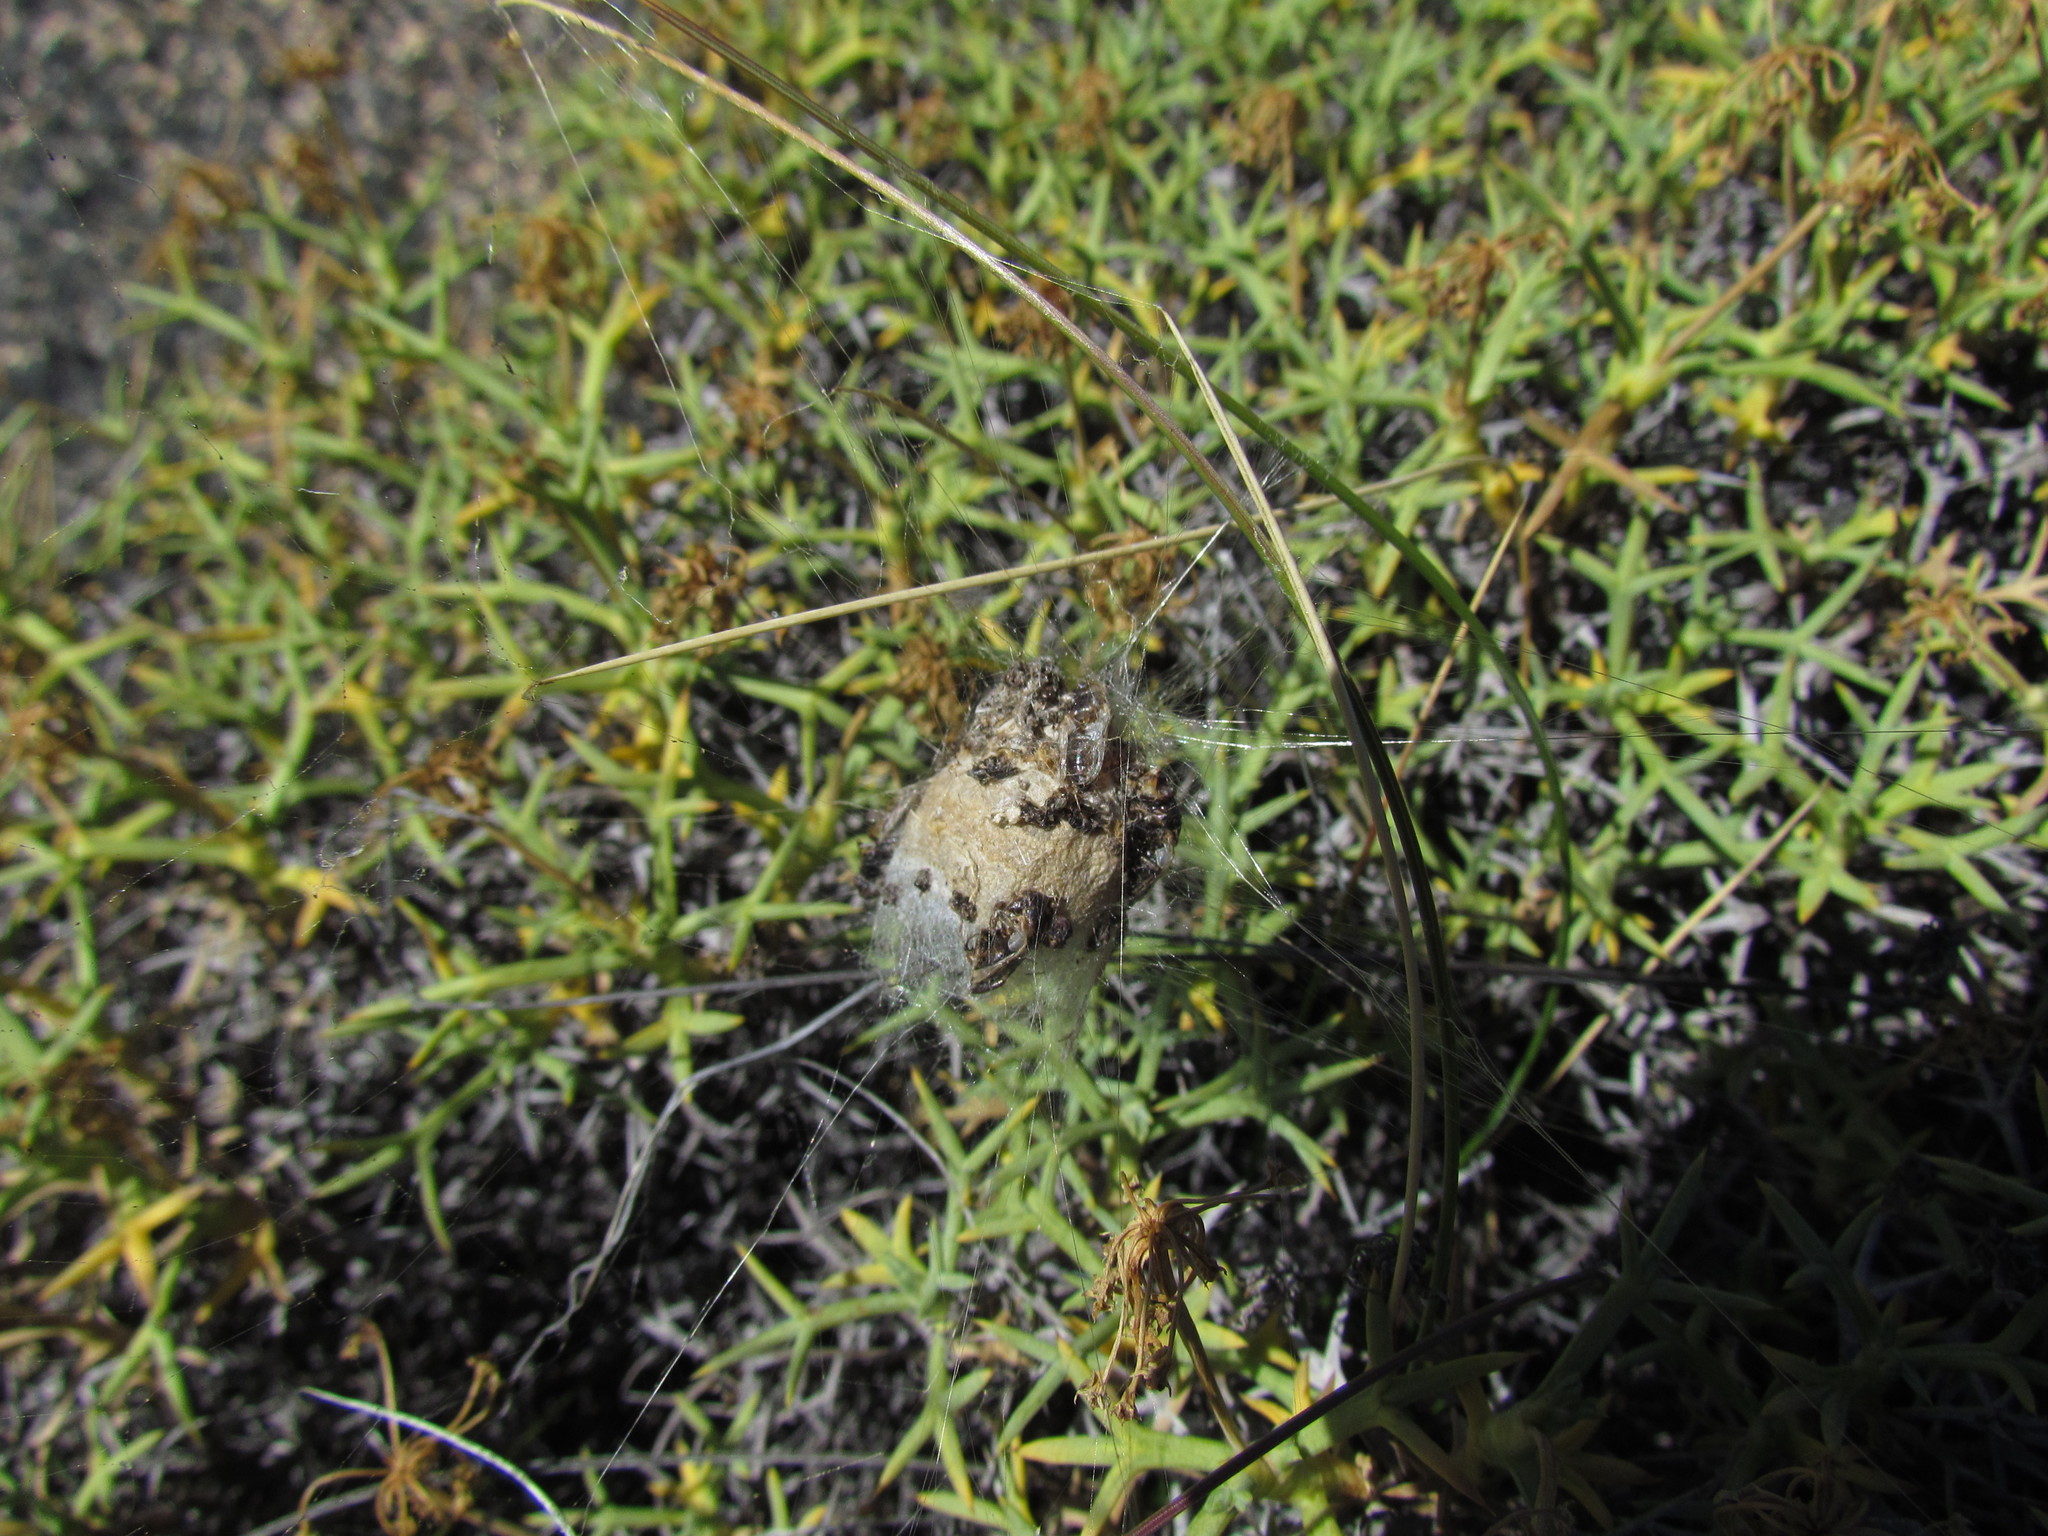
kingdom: Animalia
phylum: Arthropoda
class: Arachnida
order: Araneae
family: Araneidae
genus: Metepeira
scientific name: Metepeira
